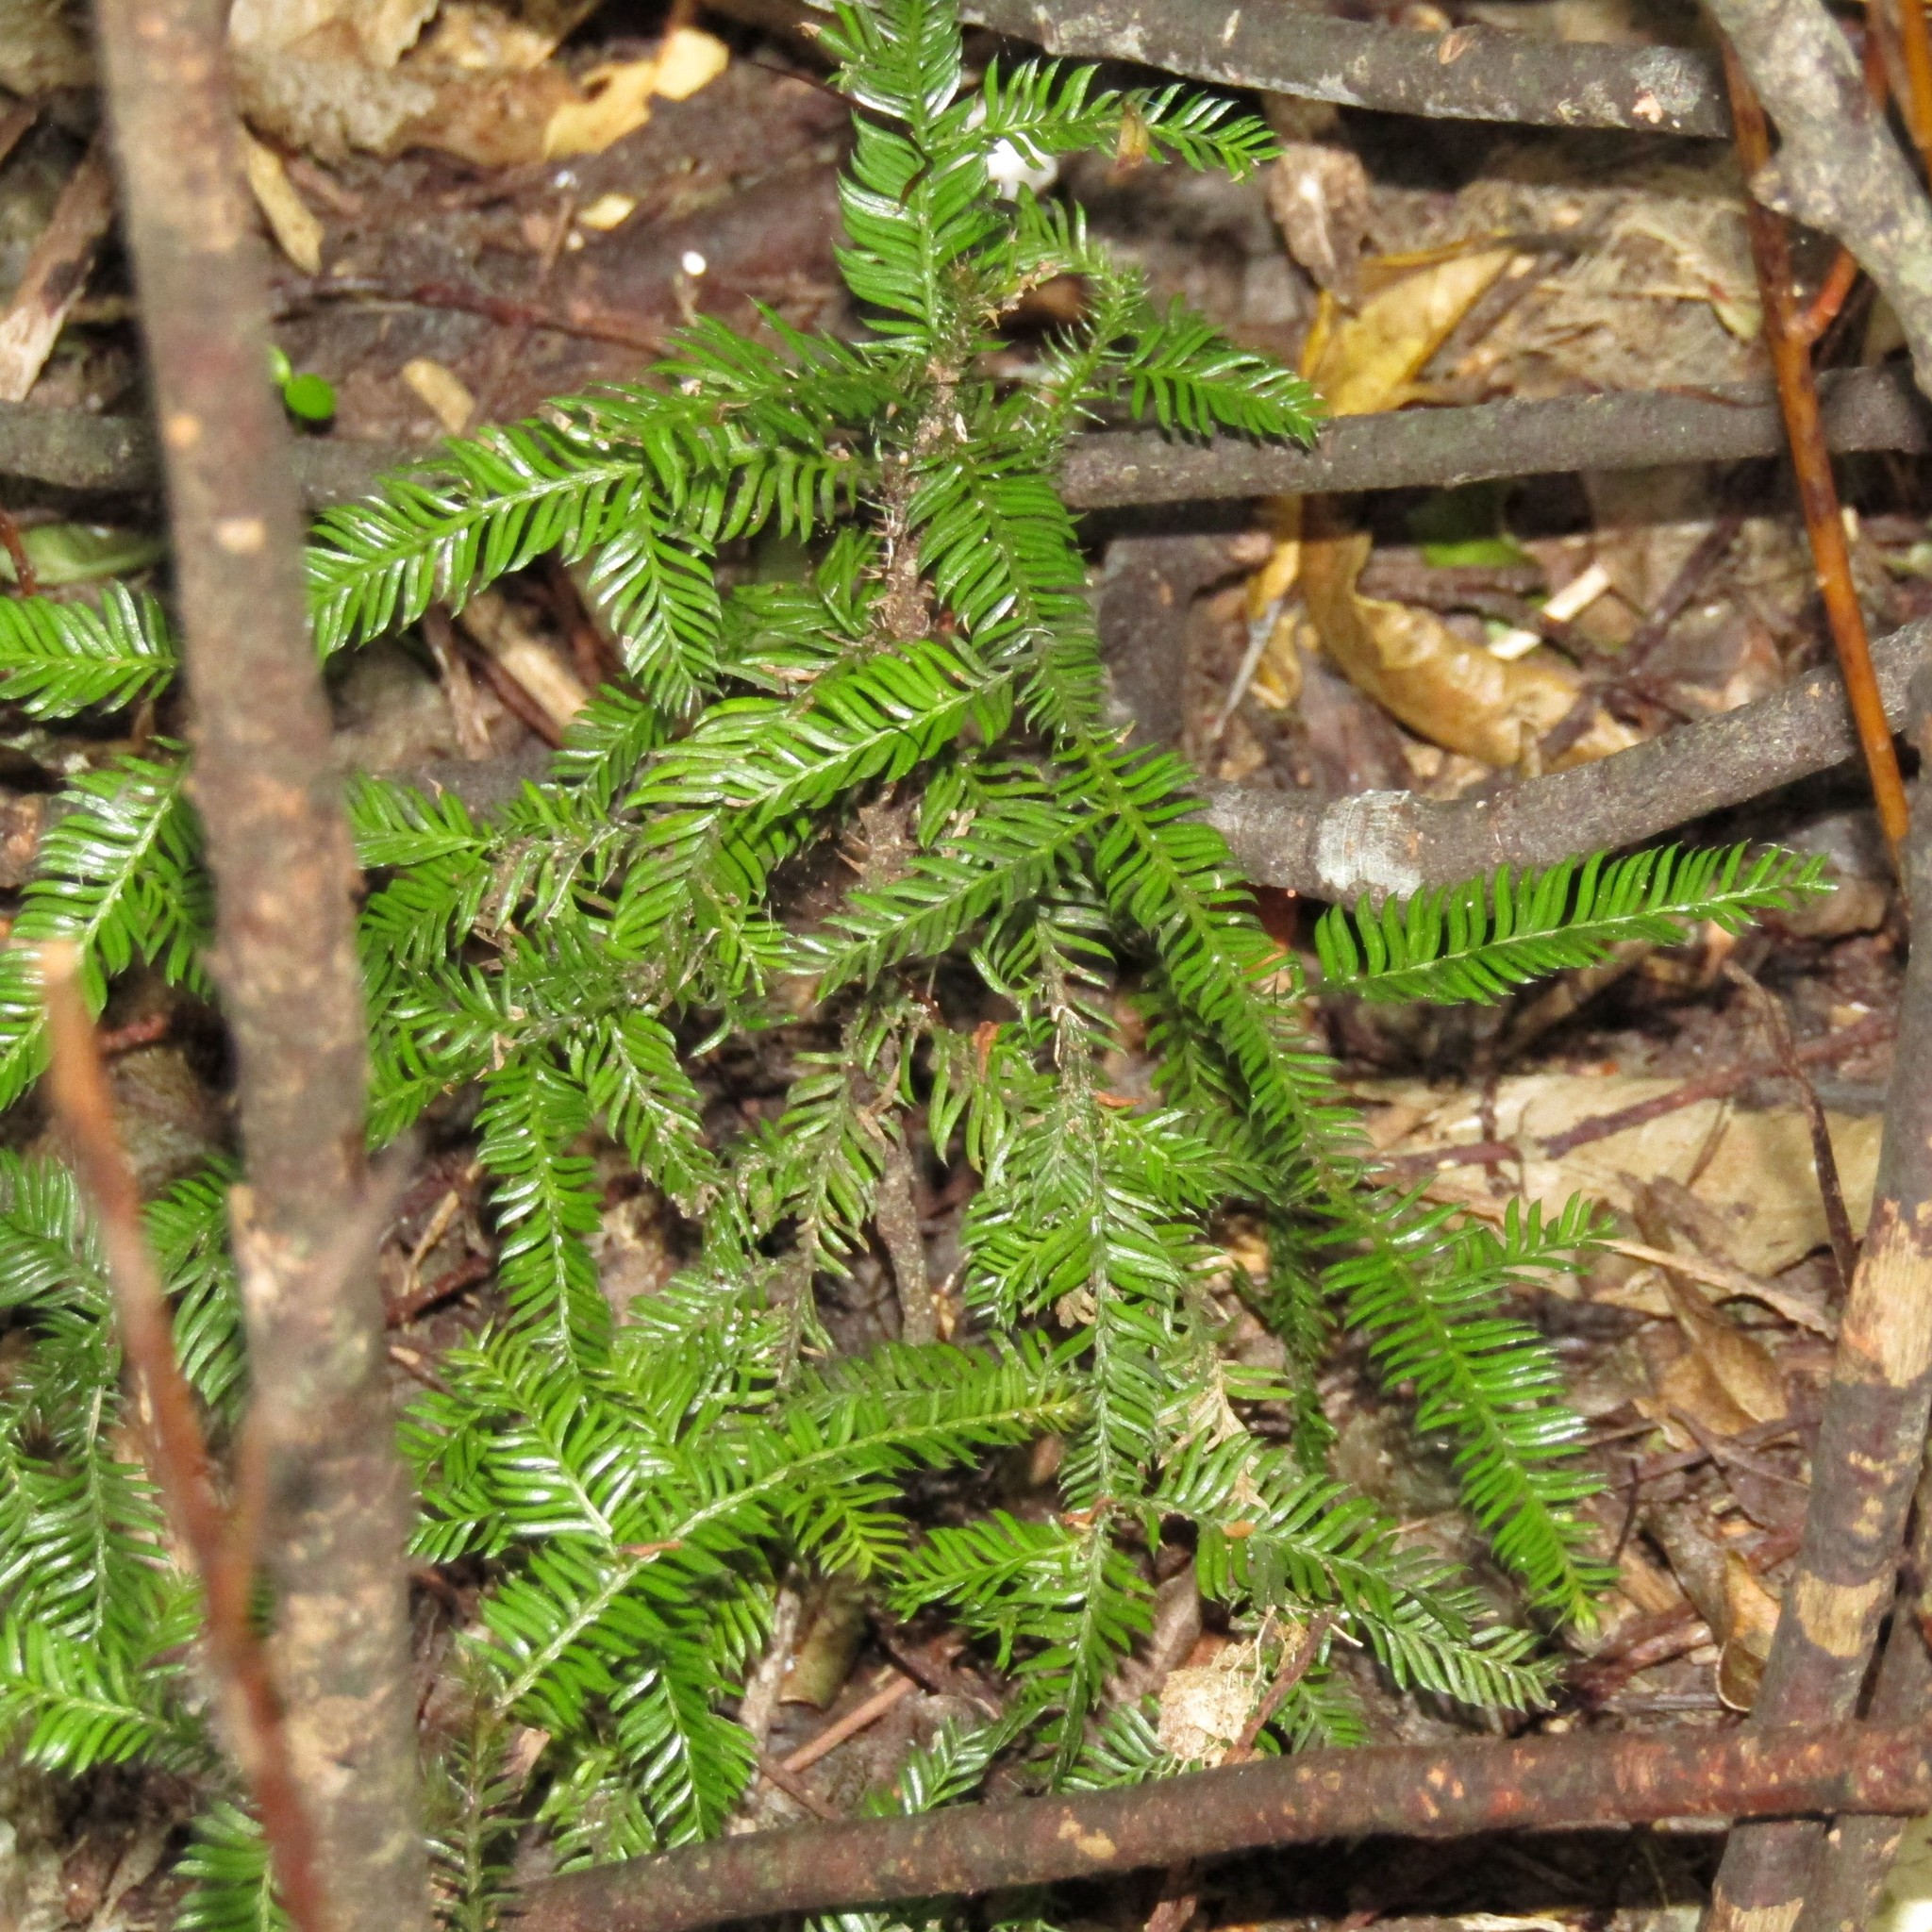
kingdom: Plantae
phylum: Tracheophyta
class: Pinopsida
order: Pinales
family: Podocarpaceae
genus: Dacrycarpus
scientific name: Dacrycarpus dacrydioides
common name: White pine
